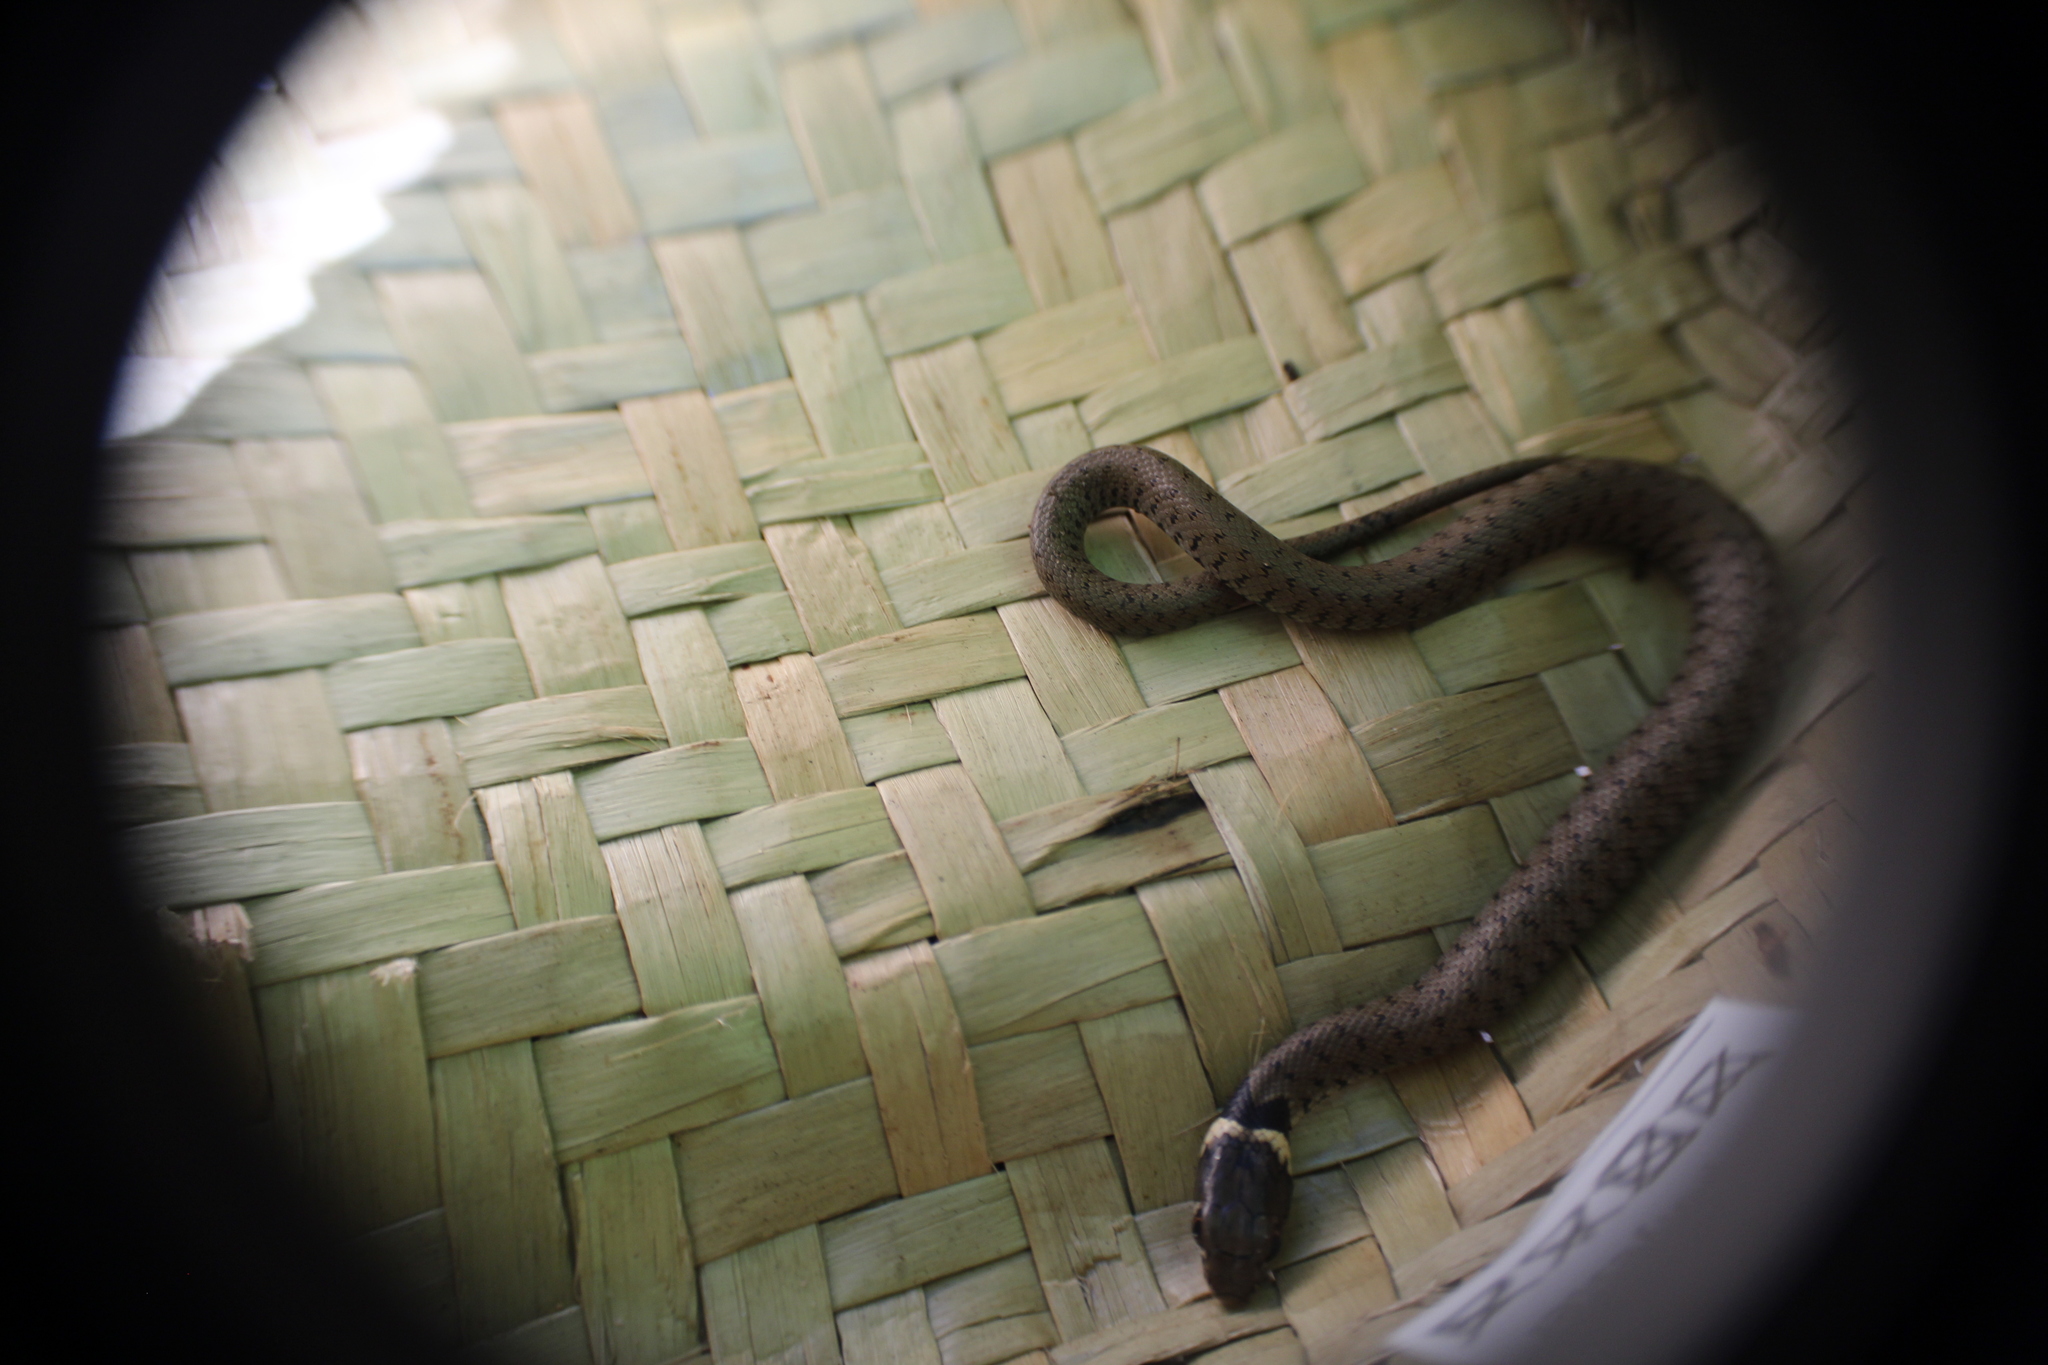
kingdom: Animalia
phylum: Chordata
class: Squamata
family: Colubridae
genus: Natrix
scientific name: Natrix helvetica
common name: Banded grass snake
